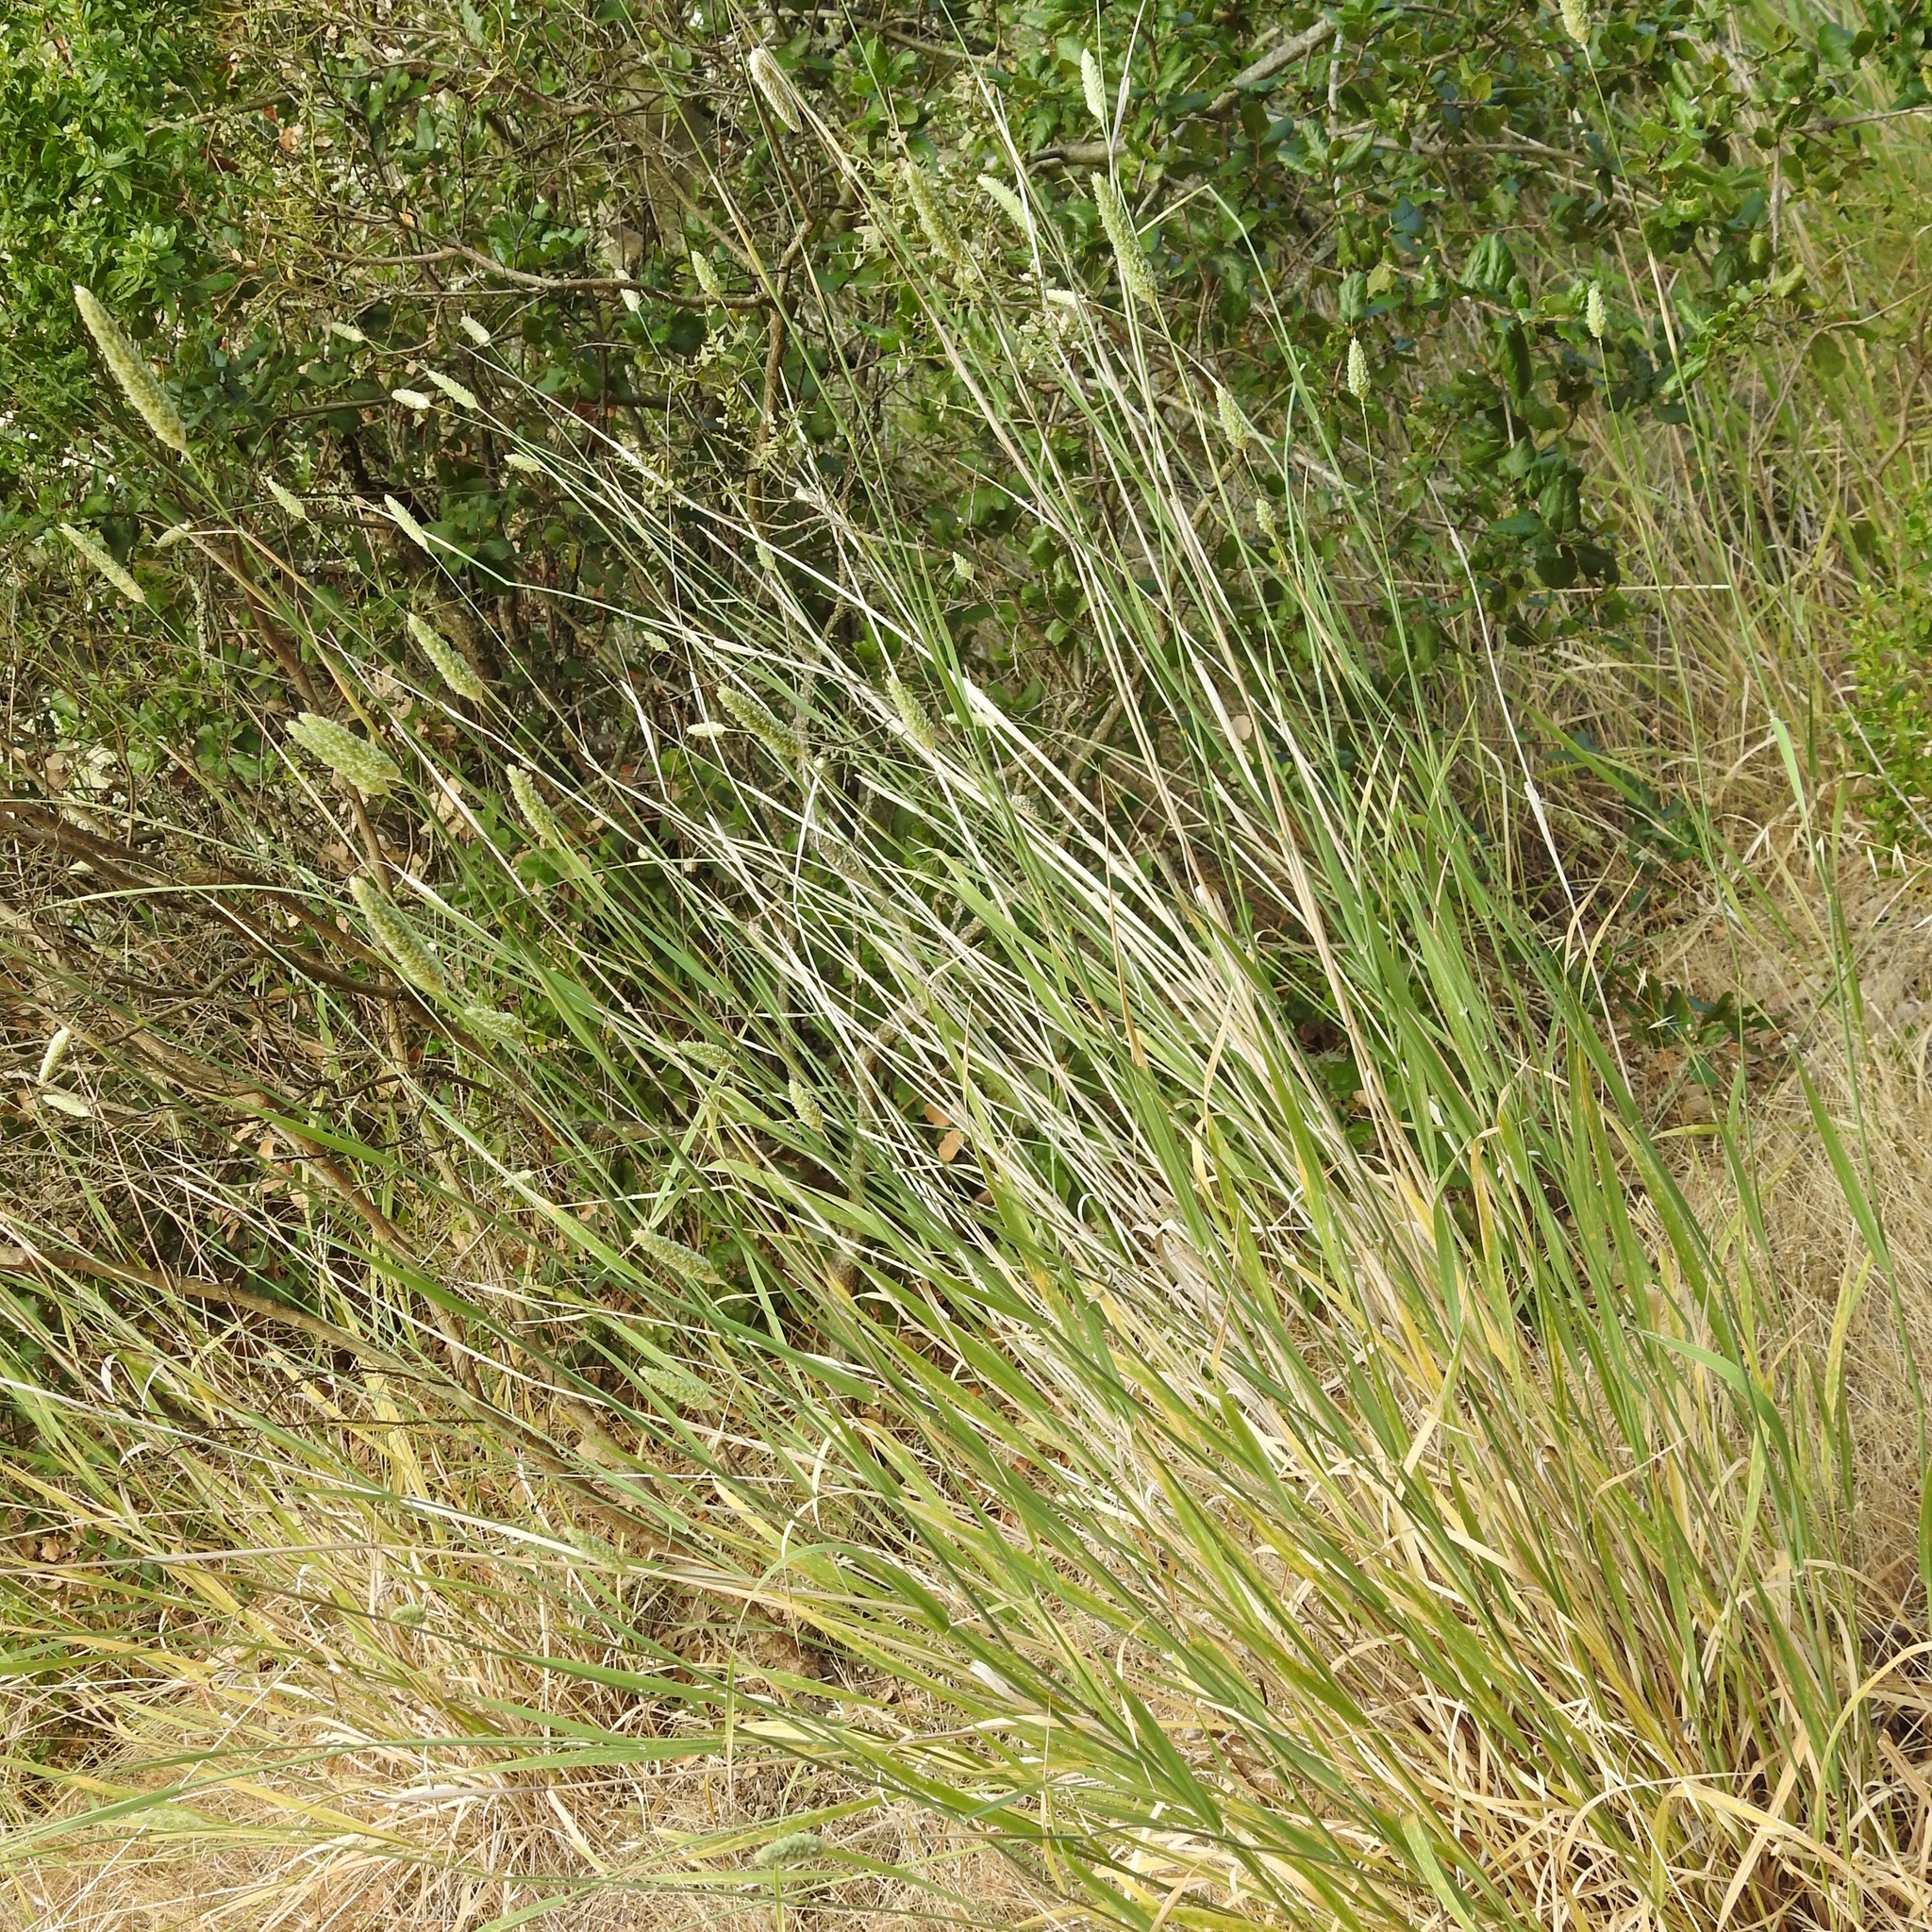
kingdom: Plantae
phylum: Tracheophyta
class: Liliopsida
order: Poales
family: Poaceae
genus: Phalaris
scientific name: Phalaris aquatica
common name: Bulbous canary-grass
